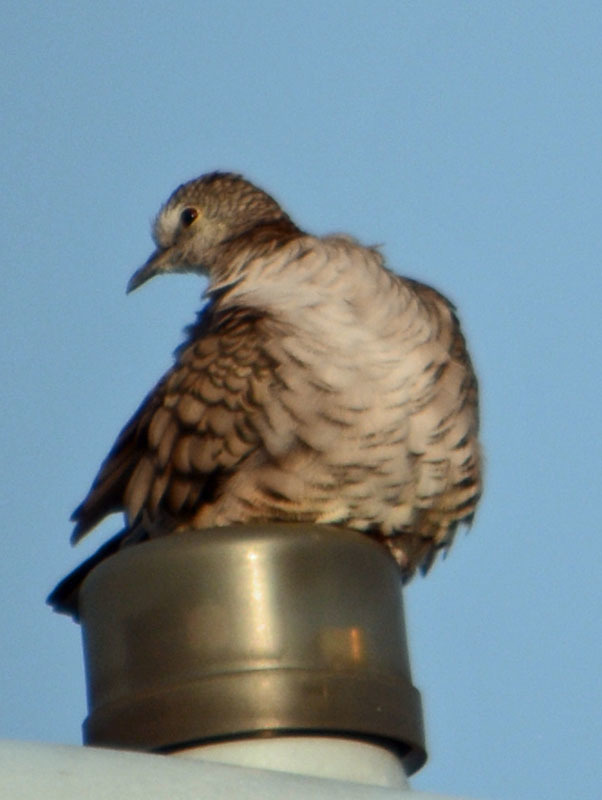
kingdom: Animalia
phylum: Chordata
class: Aves
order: Columbiformes
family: Columbidae
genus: Columbina
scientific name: Columbina inca
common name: Inca dove
